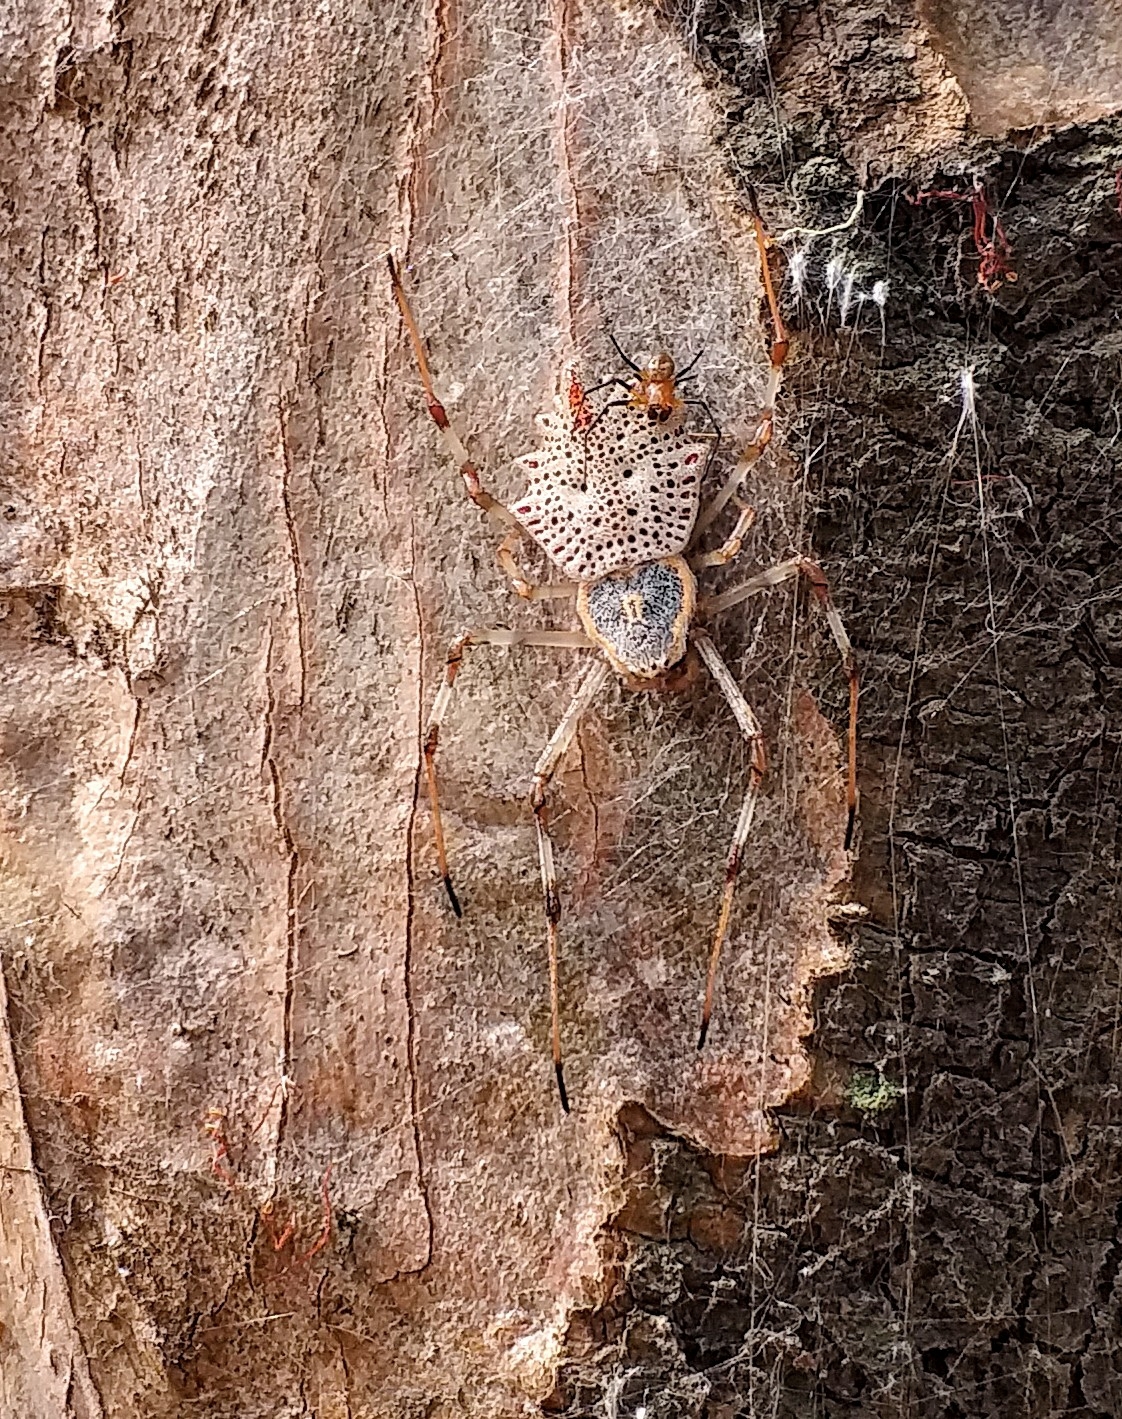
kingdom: Animalia
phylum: Arthropoda
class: Arachnida
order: Araneae
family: Araneidae
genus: Herennia
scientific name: Herennia multipuncta
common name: Spotted coin spider
